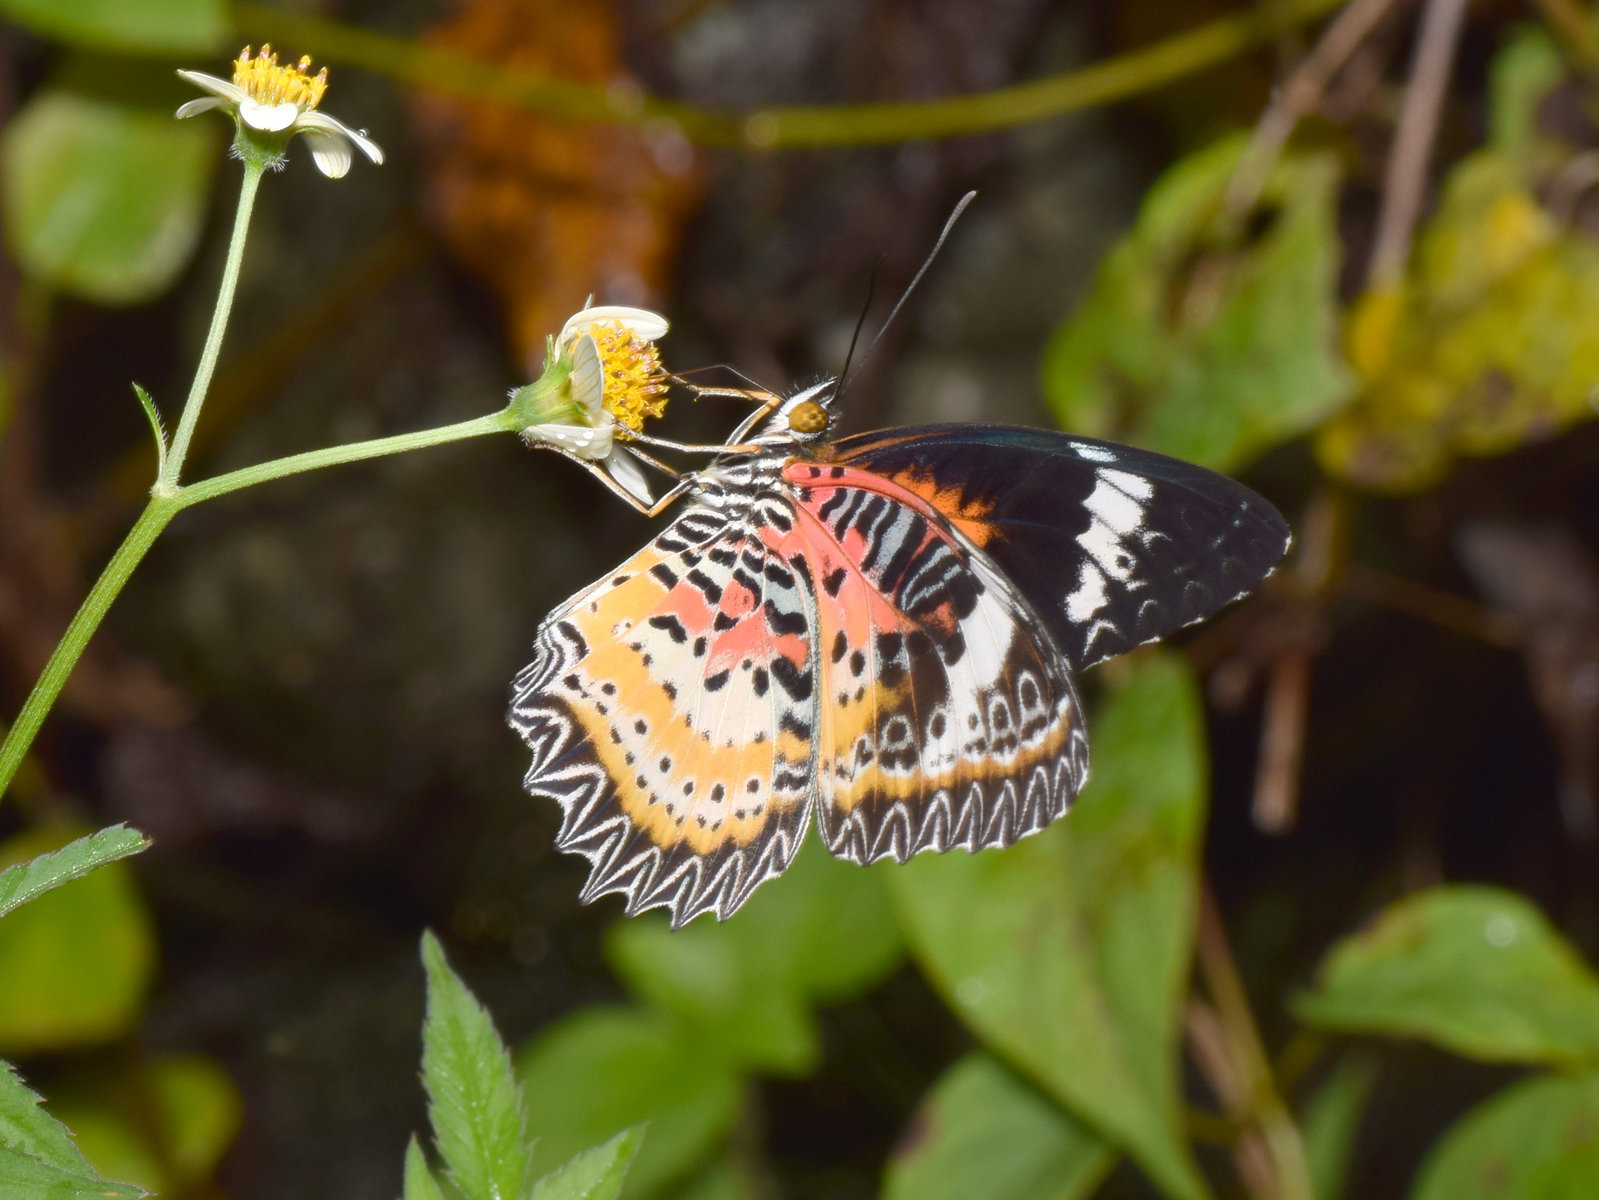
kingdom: Animalia
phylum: Arthropoda
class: Insecta
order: Lepidoptera
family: Nymphalidae
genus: Cethosia
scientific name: Cethosia cyane
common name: Leopard lacewing butterfly
